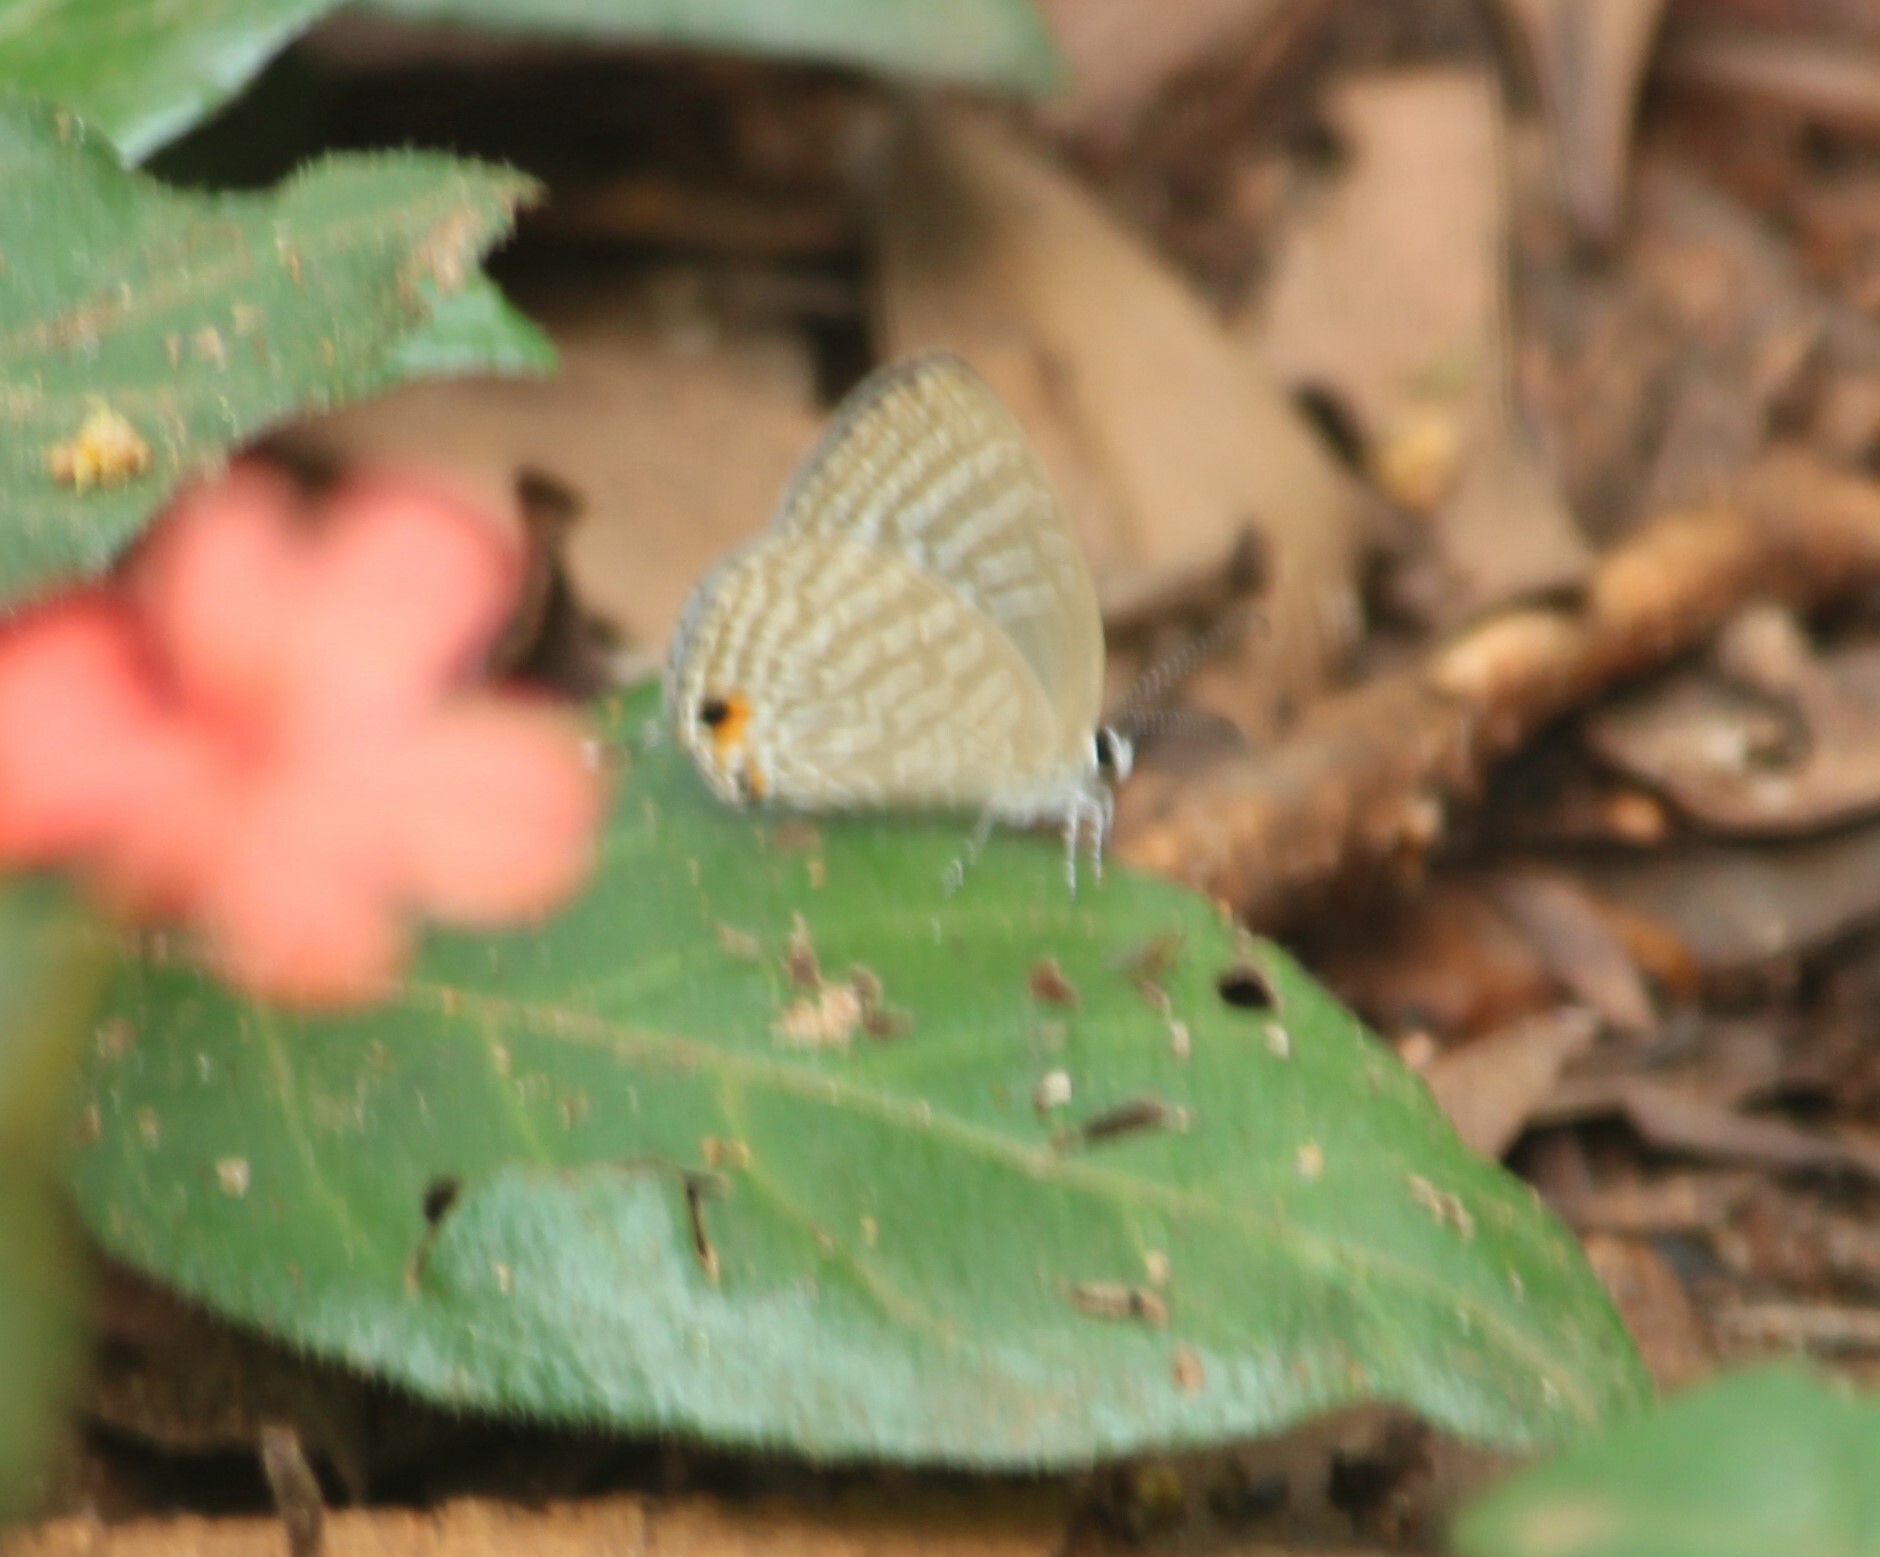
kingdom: Animalia
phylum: Arthropoda
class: Insecta
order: Lepidoptera
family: Lycaenidae
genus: Jamides
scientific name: Jamides celeno
